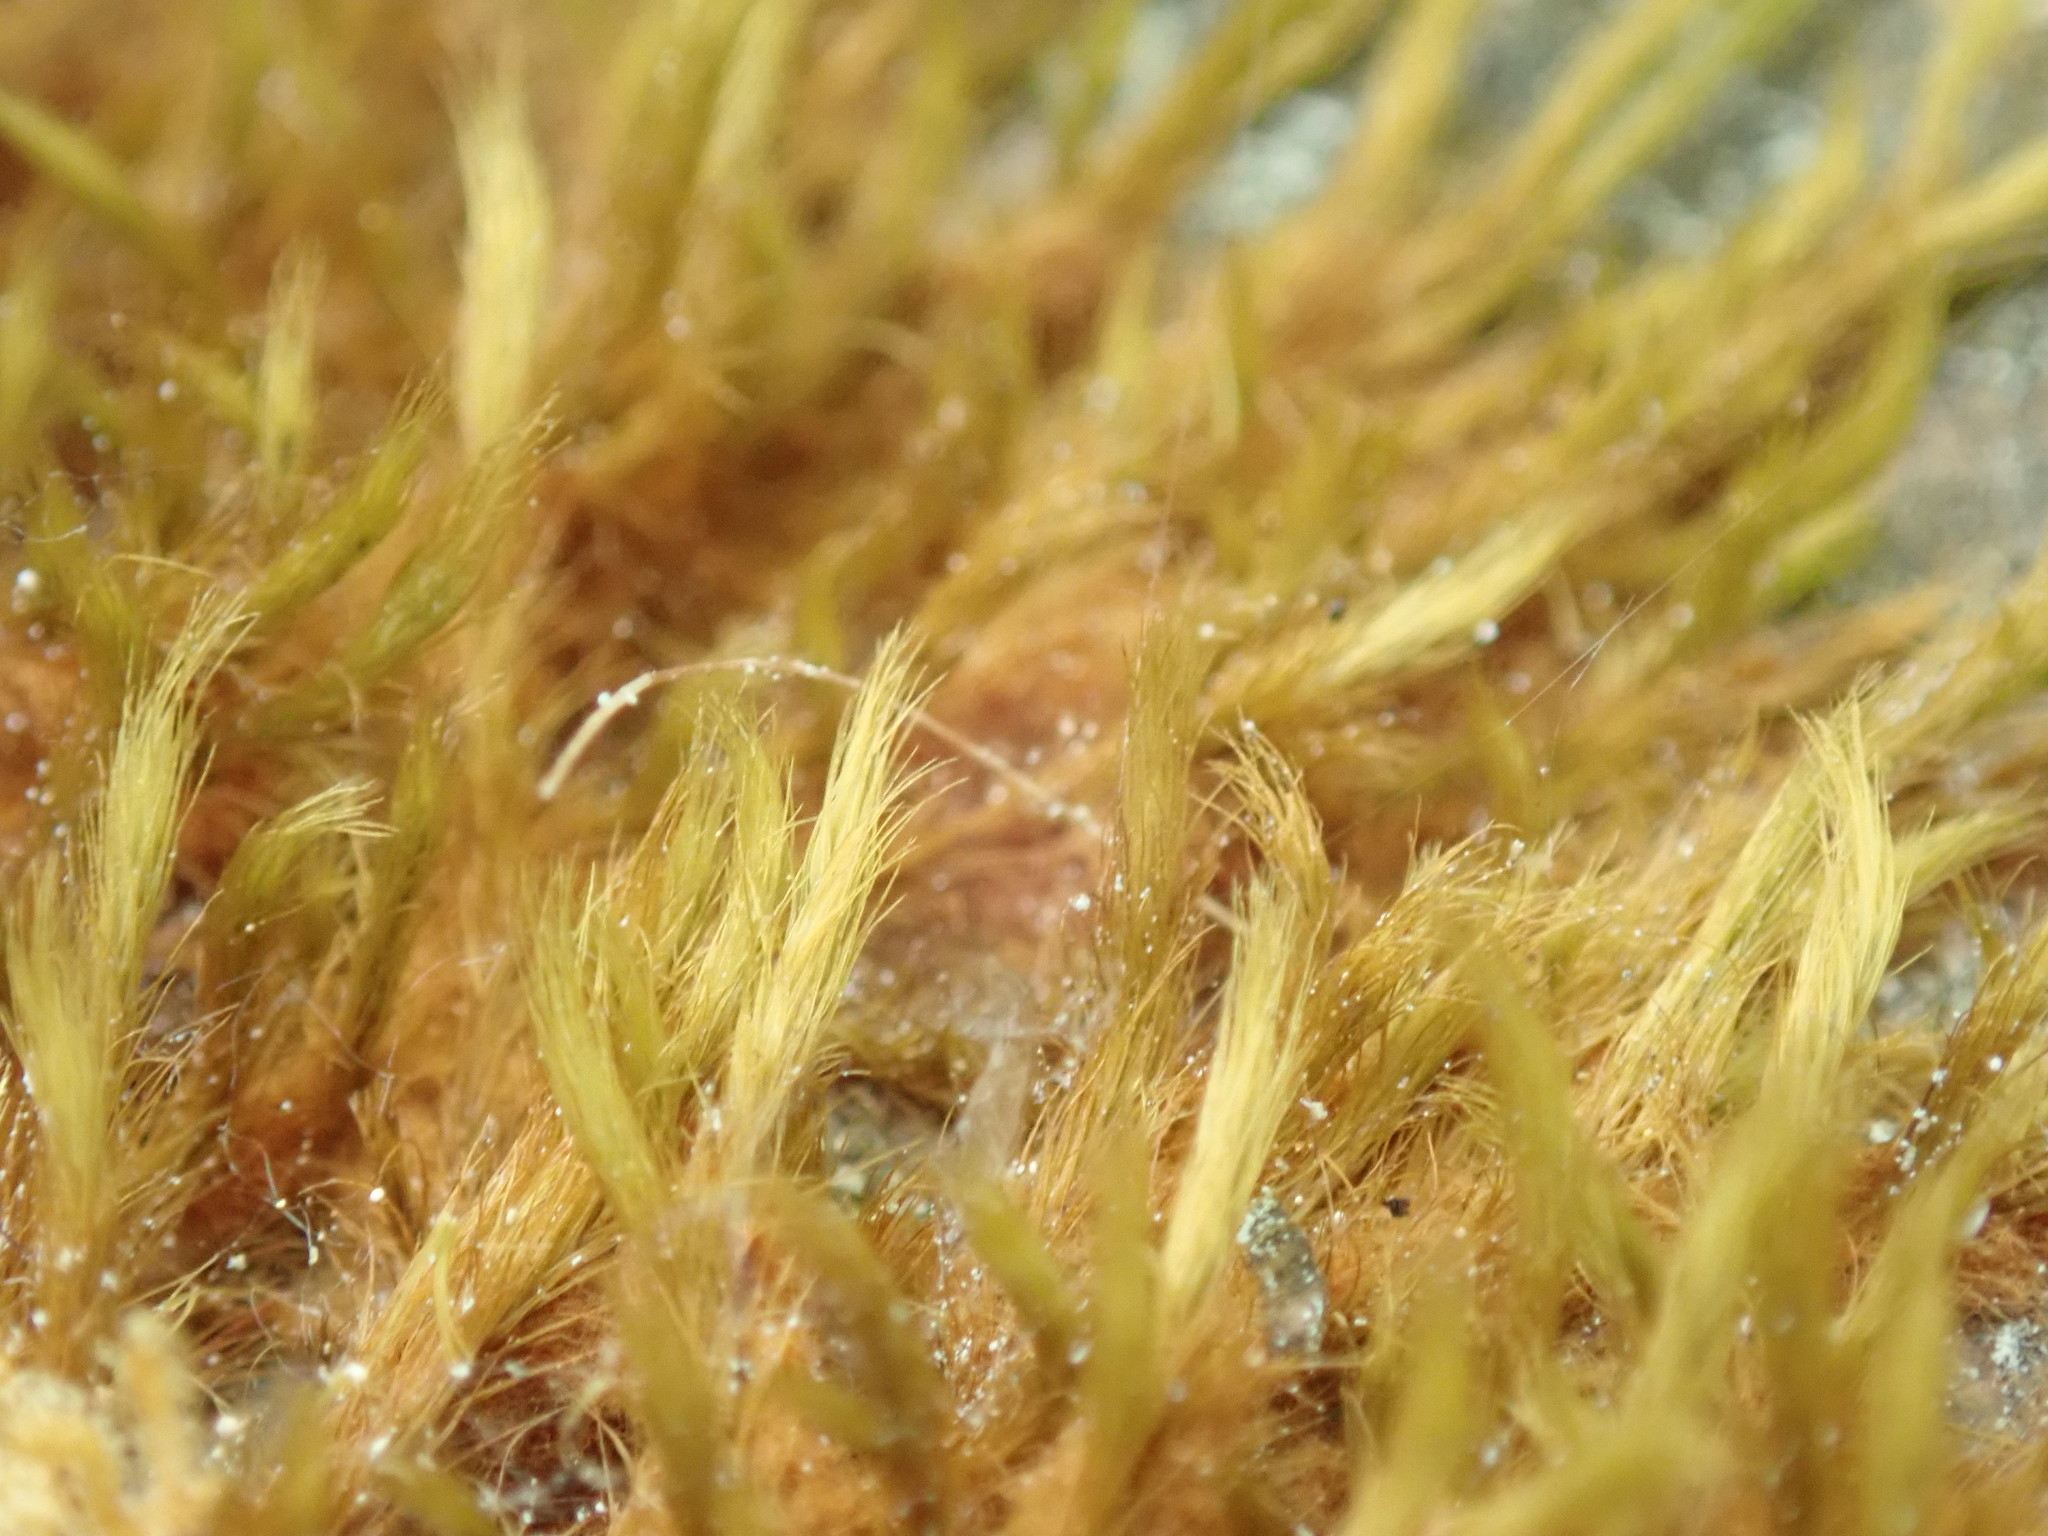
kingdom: Plantae
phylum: Bryophyta
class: Bryopsida
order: Bartramiales
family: Bartramiaceae
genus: Anacolia
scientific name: Anacolia menziesii
